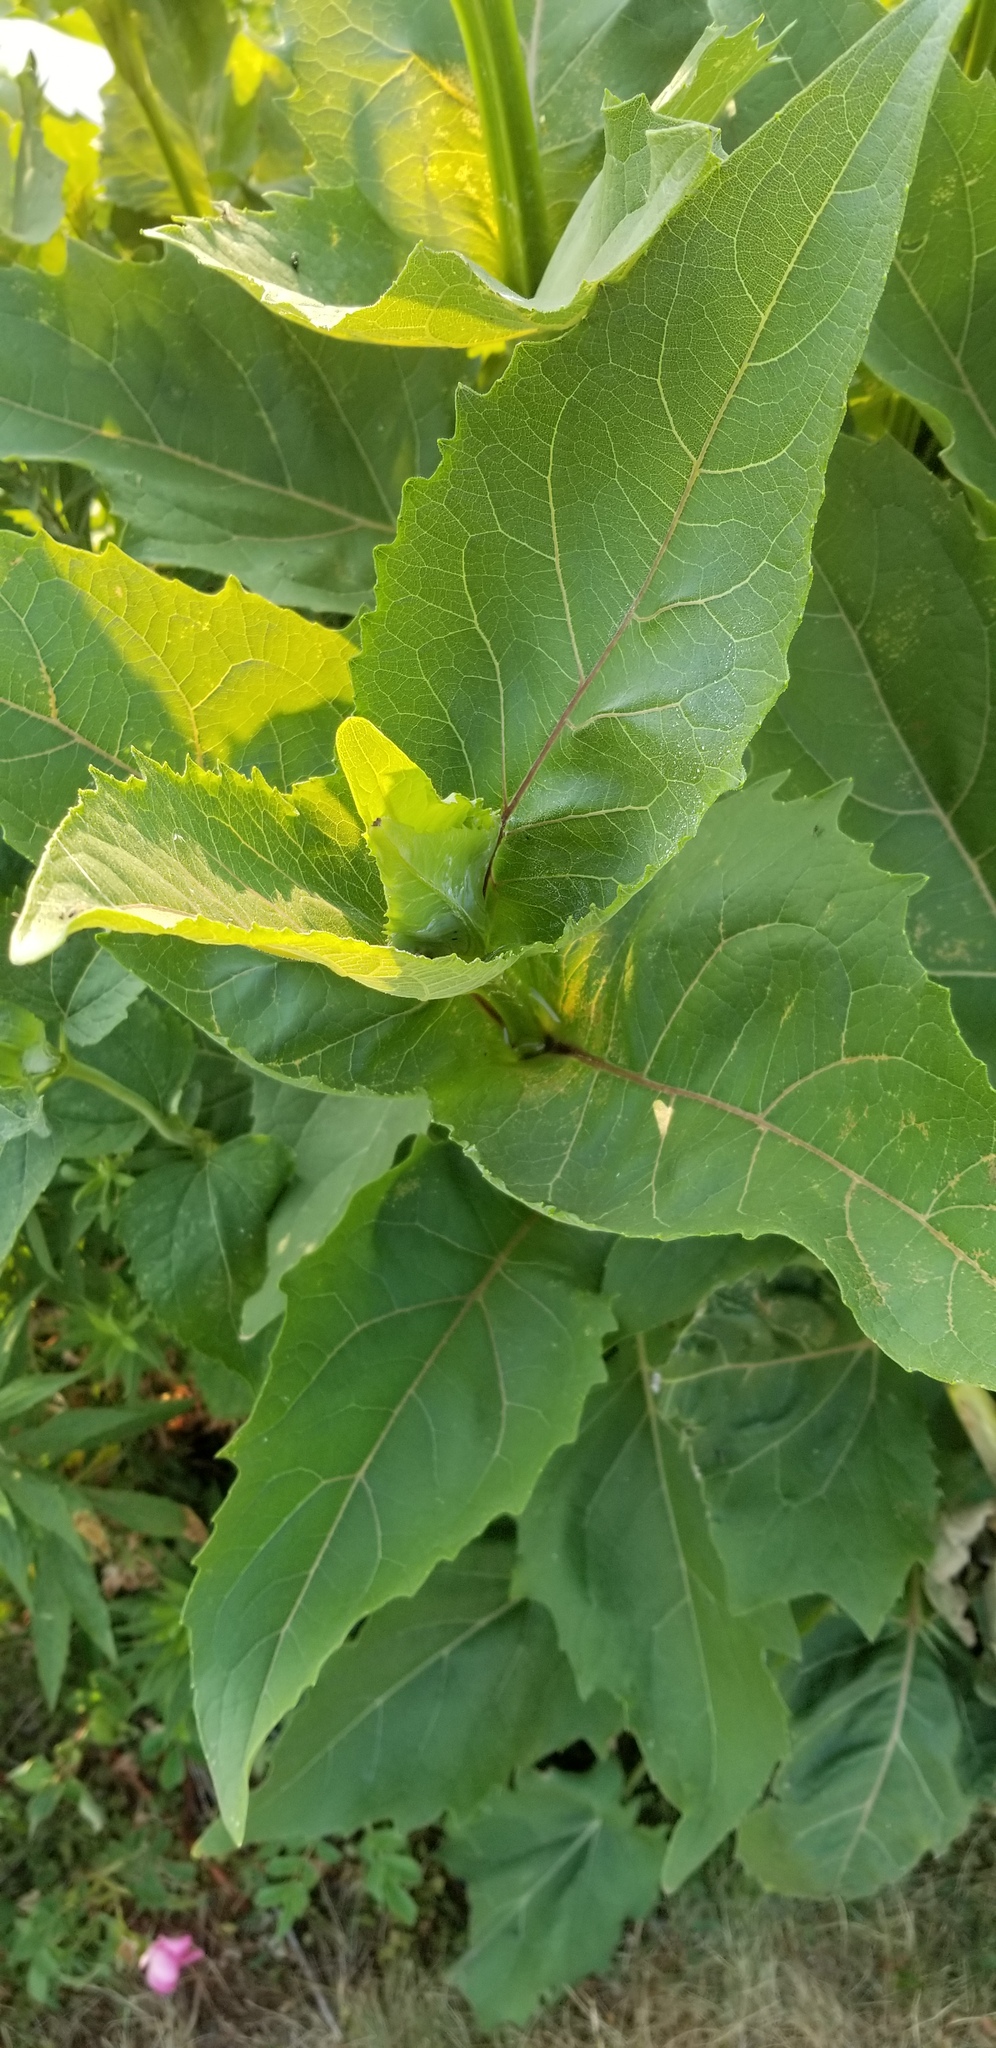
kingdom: Plantae
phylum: Tracheophyta
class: Magnoliopsida
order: Asterales
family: Asteraceae
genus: Silphium
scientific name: Silphium perfoliatum
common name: Cup-plant
